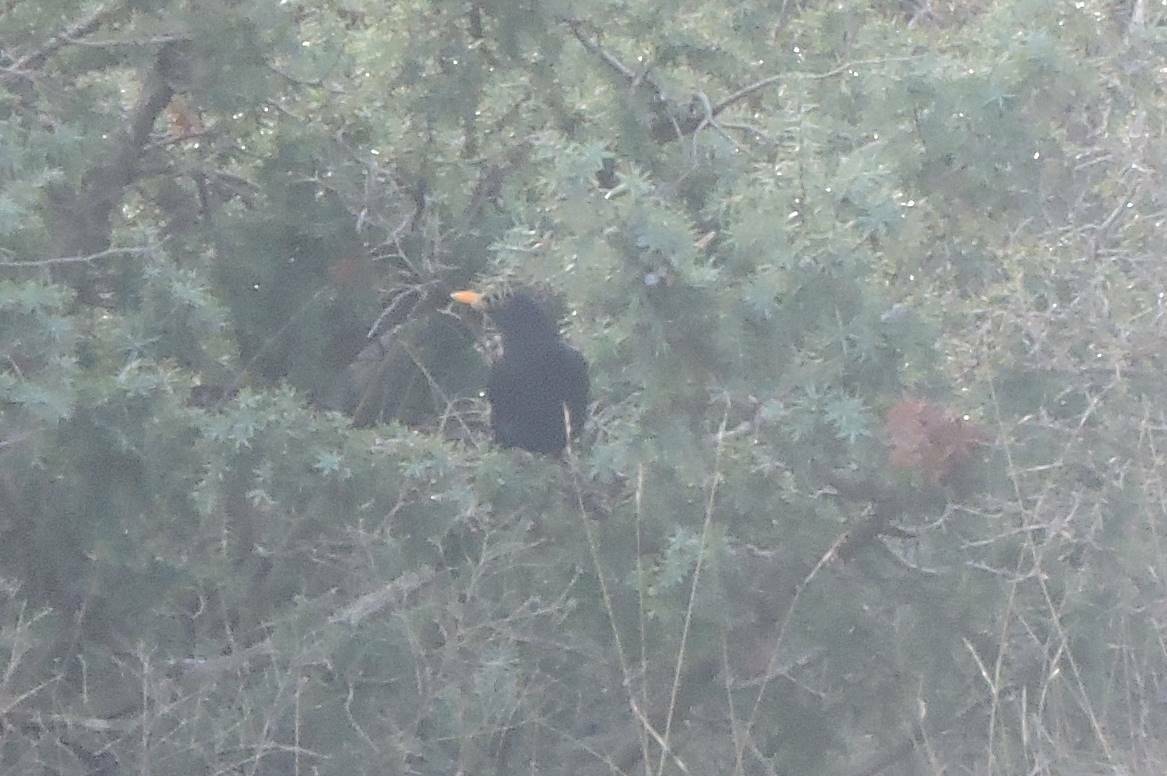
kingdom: Animalia
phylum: Chordata
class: Aves
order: Passeriformes
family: Turdidae
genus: Turdus
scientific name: Turdus merula
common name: Common blackbird
